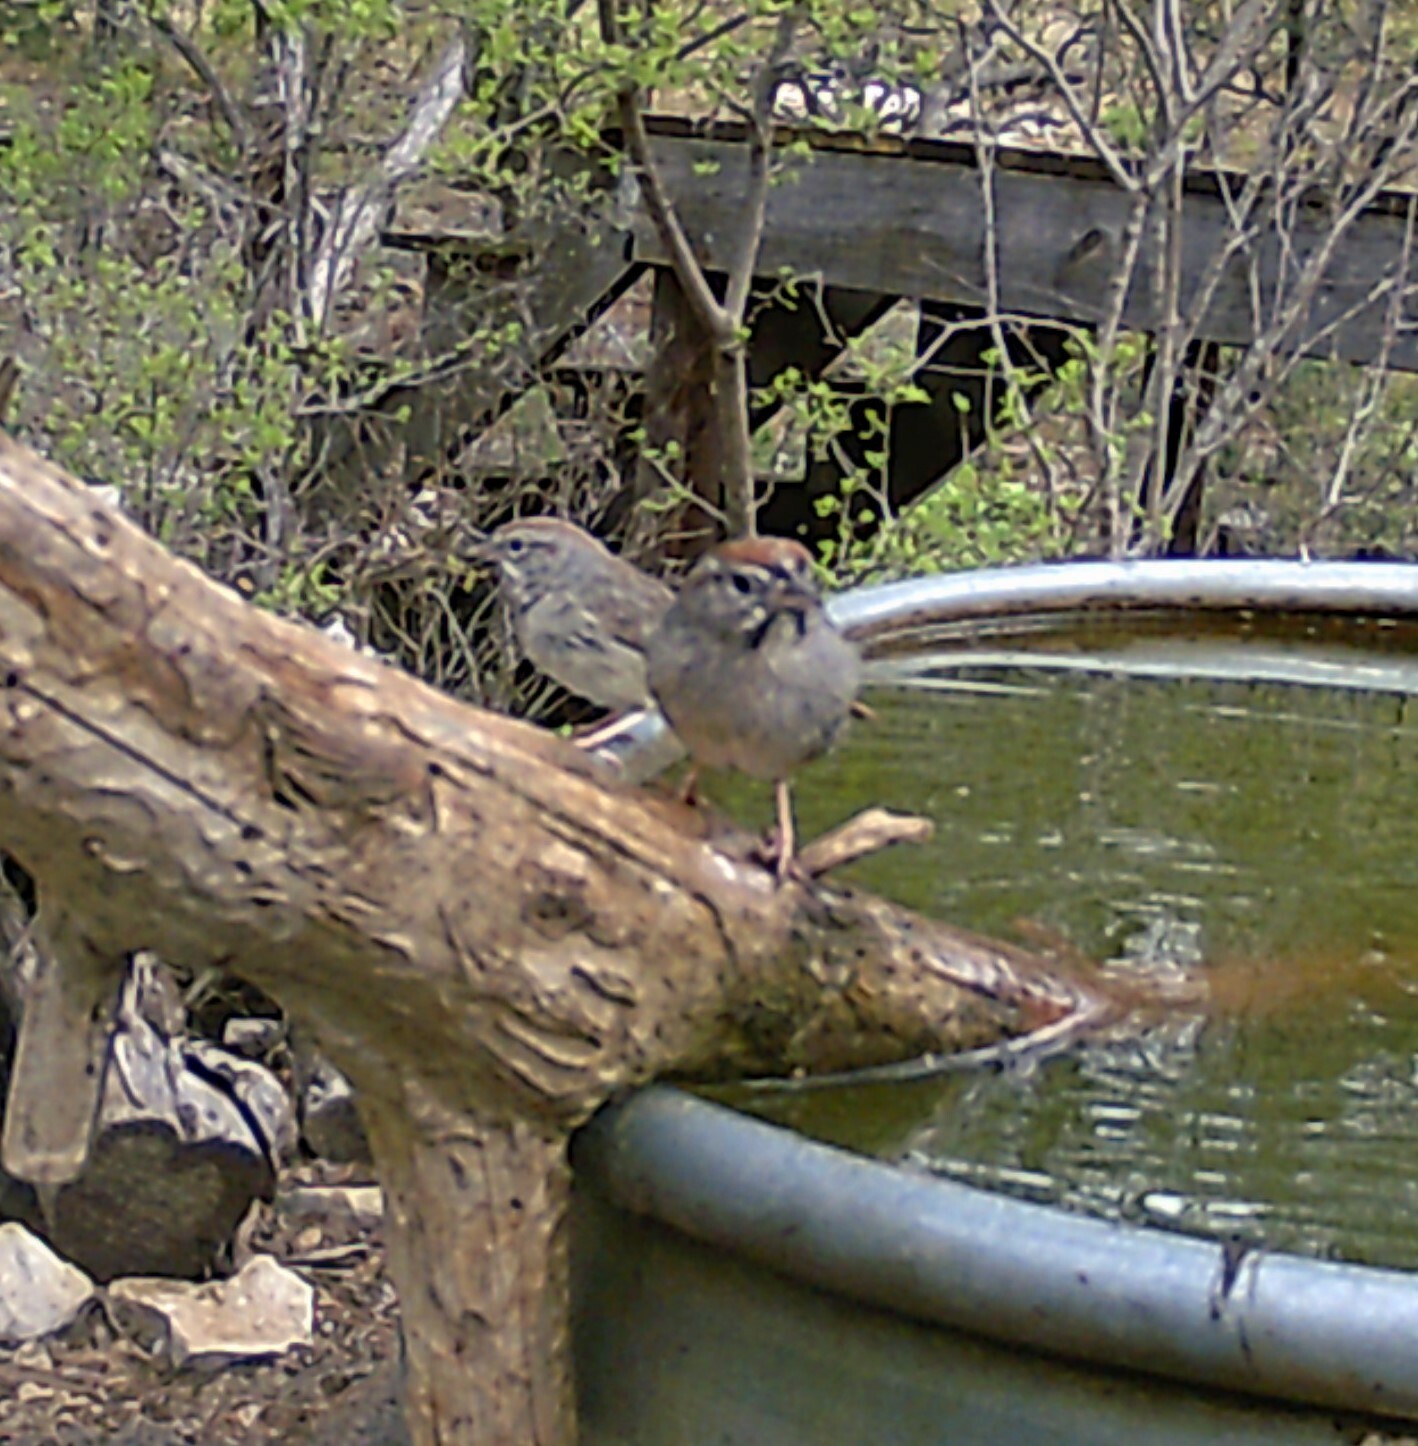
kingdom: Animalia
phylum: Chordata
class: Aves
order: Passeriformes
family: Passerellidae
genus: Aimophila
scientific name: Aimophila ruficeps
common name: Rufous-crowned sparrow
